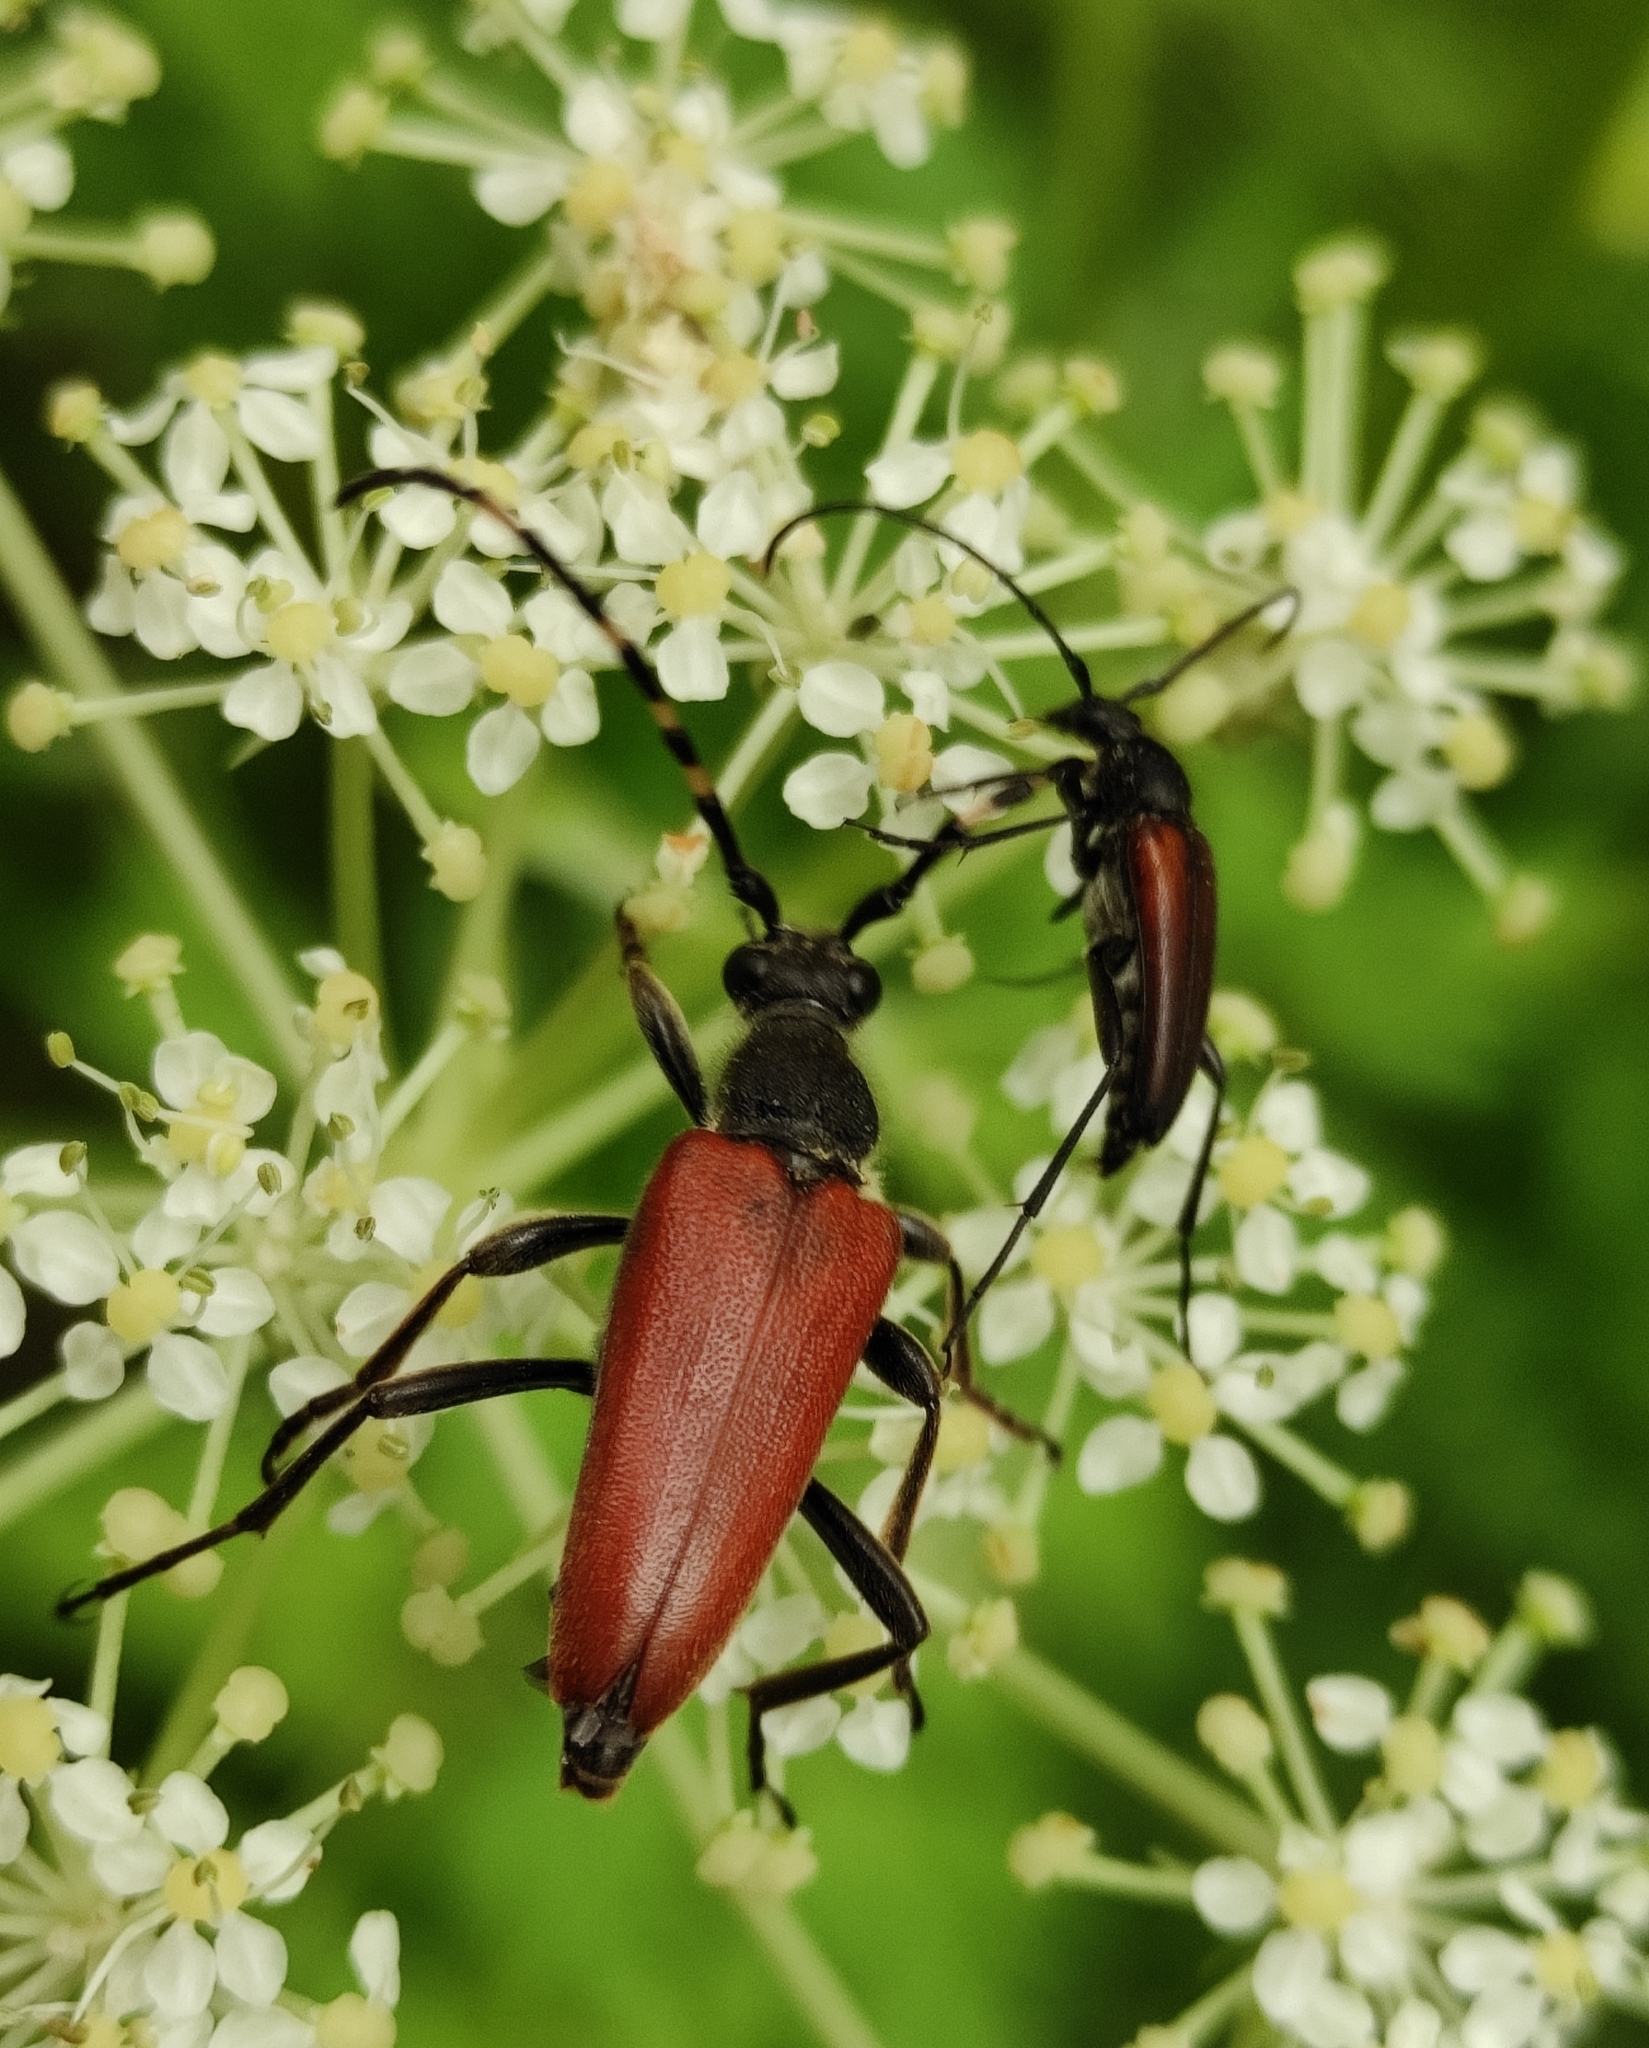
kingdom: Animalia
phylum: Arthropoda
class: Insecta
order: Coleoptera
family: Cerambycidae
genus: Stictoleptura
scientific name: Stictoleptura variicornis
